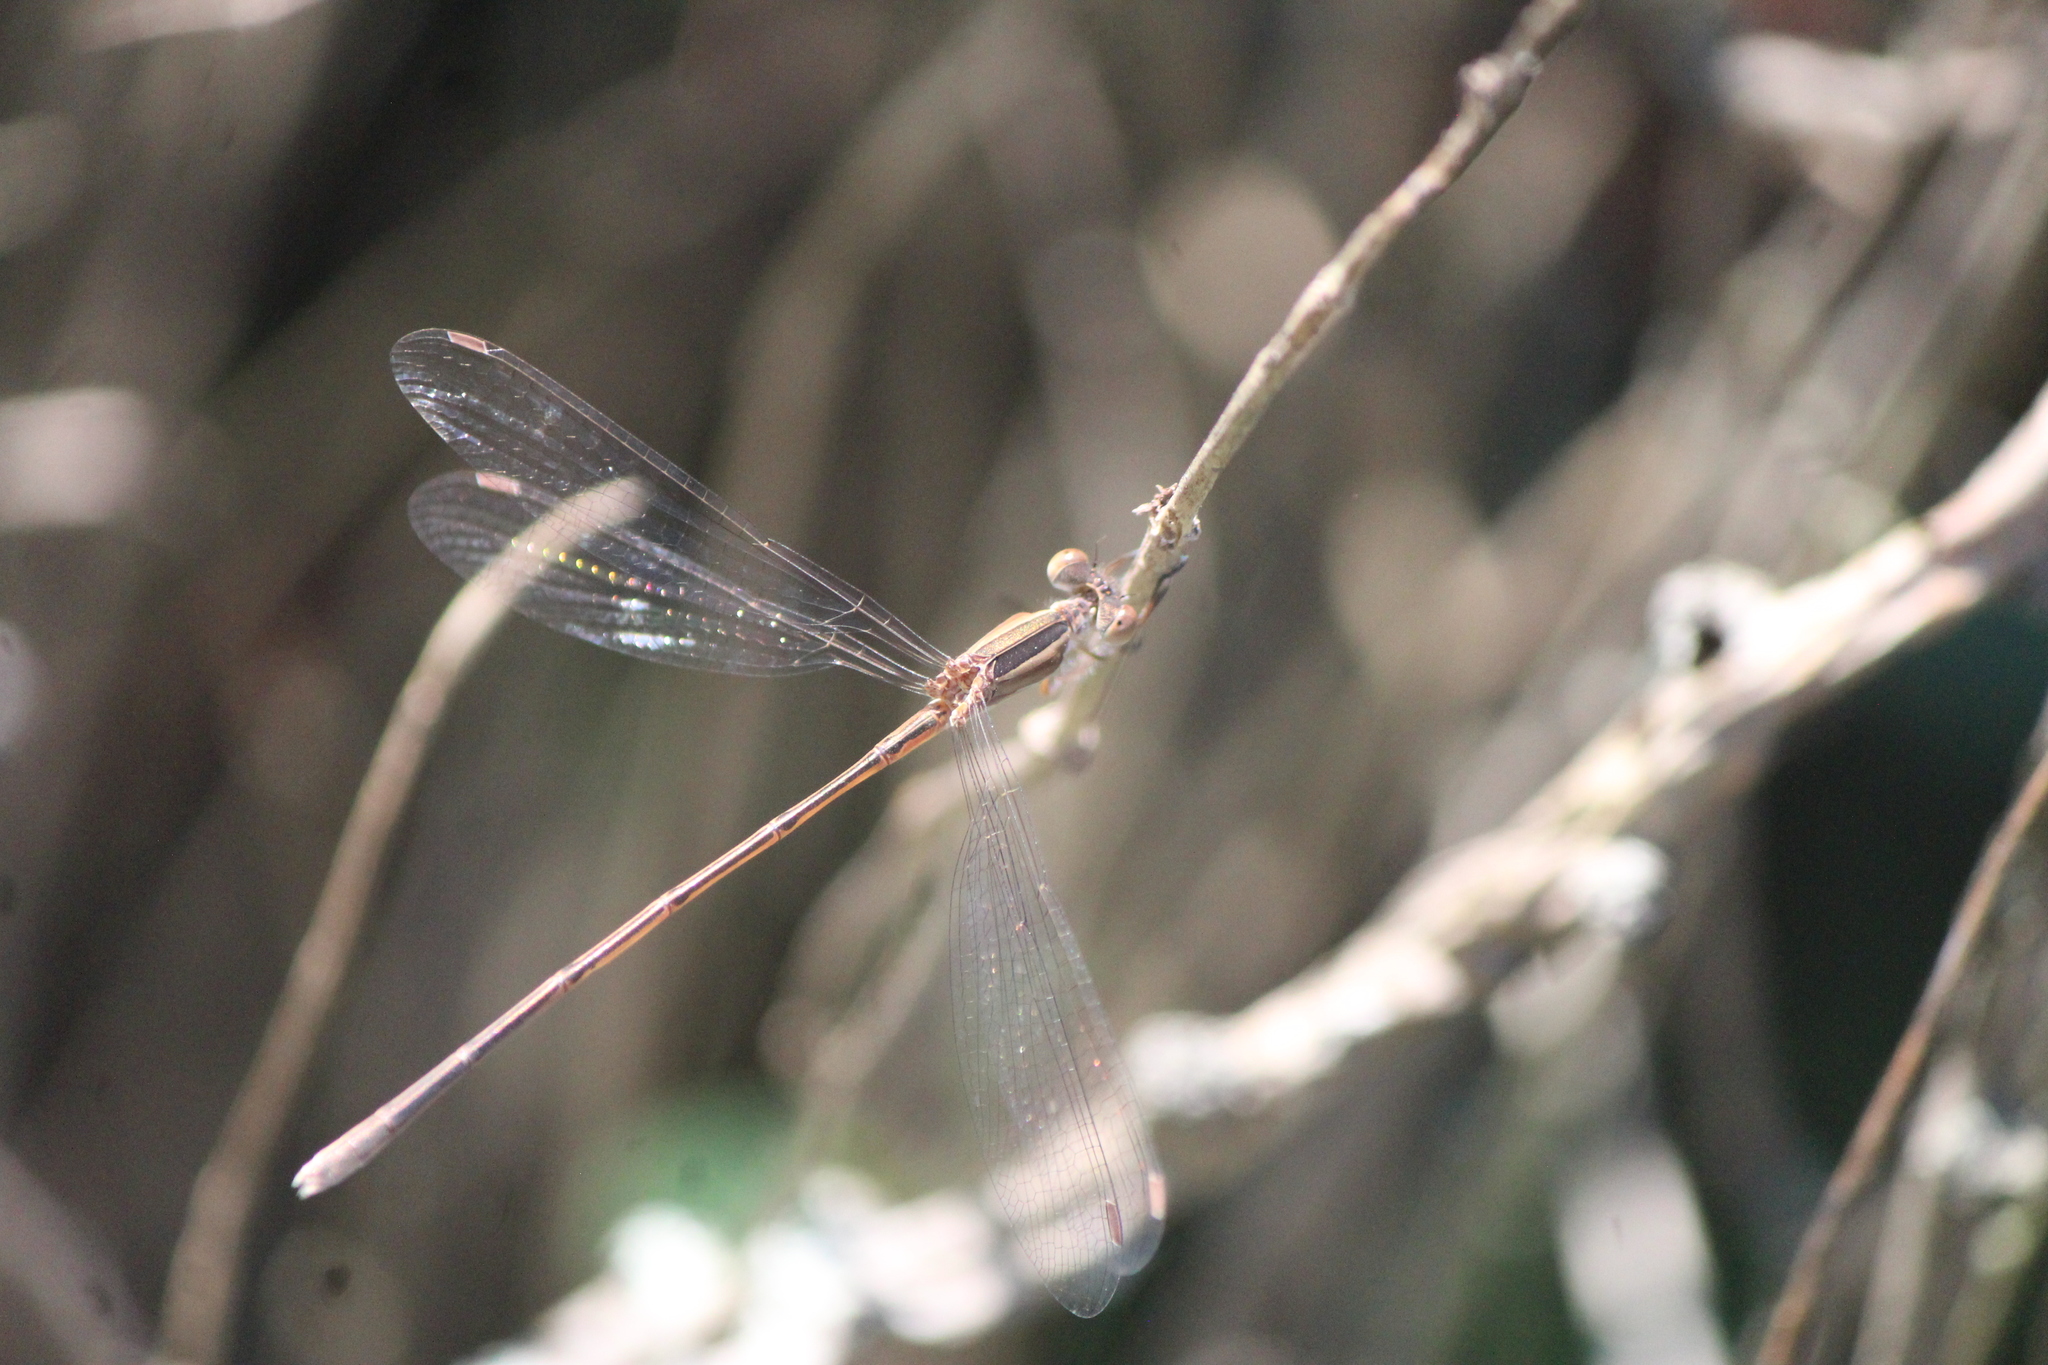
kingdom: Animalia
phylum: Arthropoda
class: Insecta
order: Odonata
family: Lestidae
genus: Lestes
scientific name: Lestes alacer
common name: Plateau spreadwing
